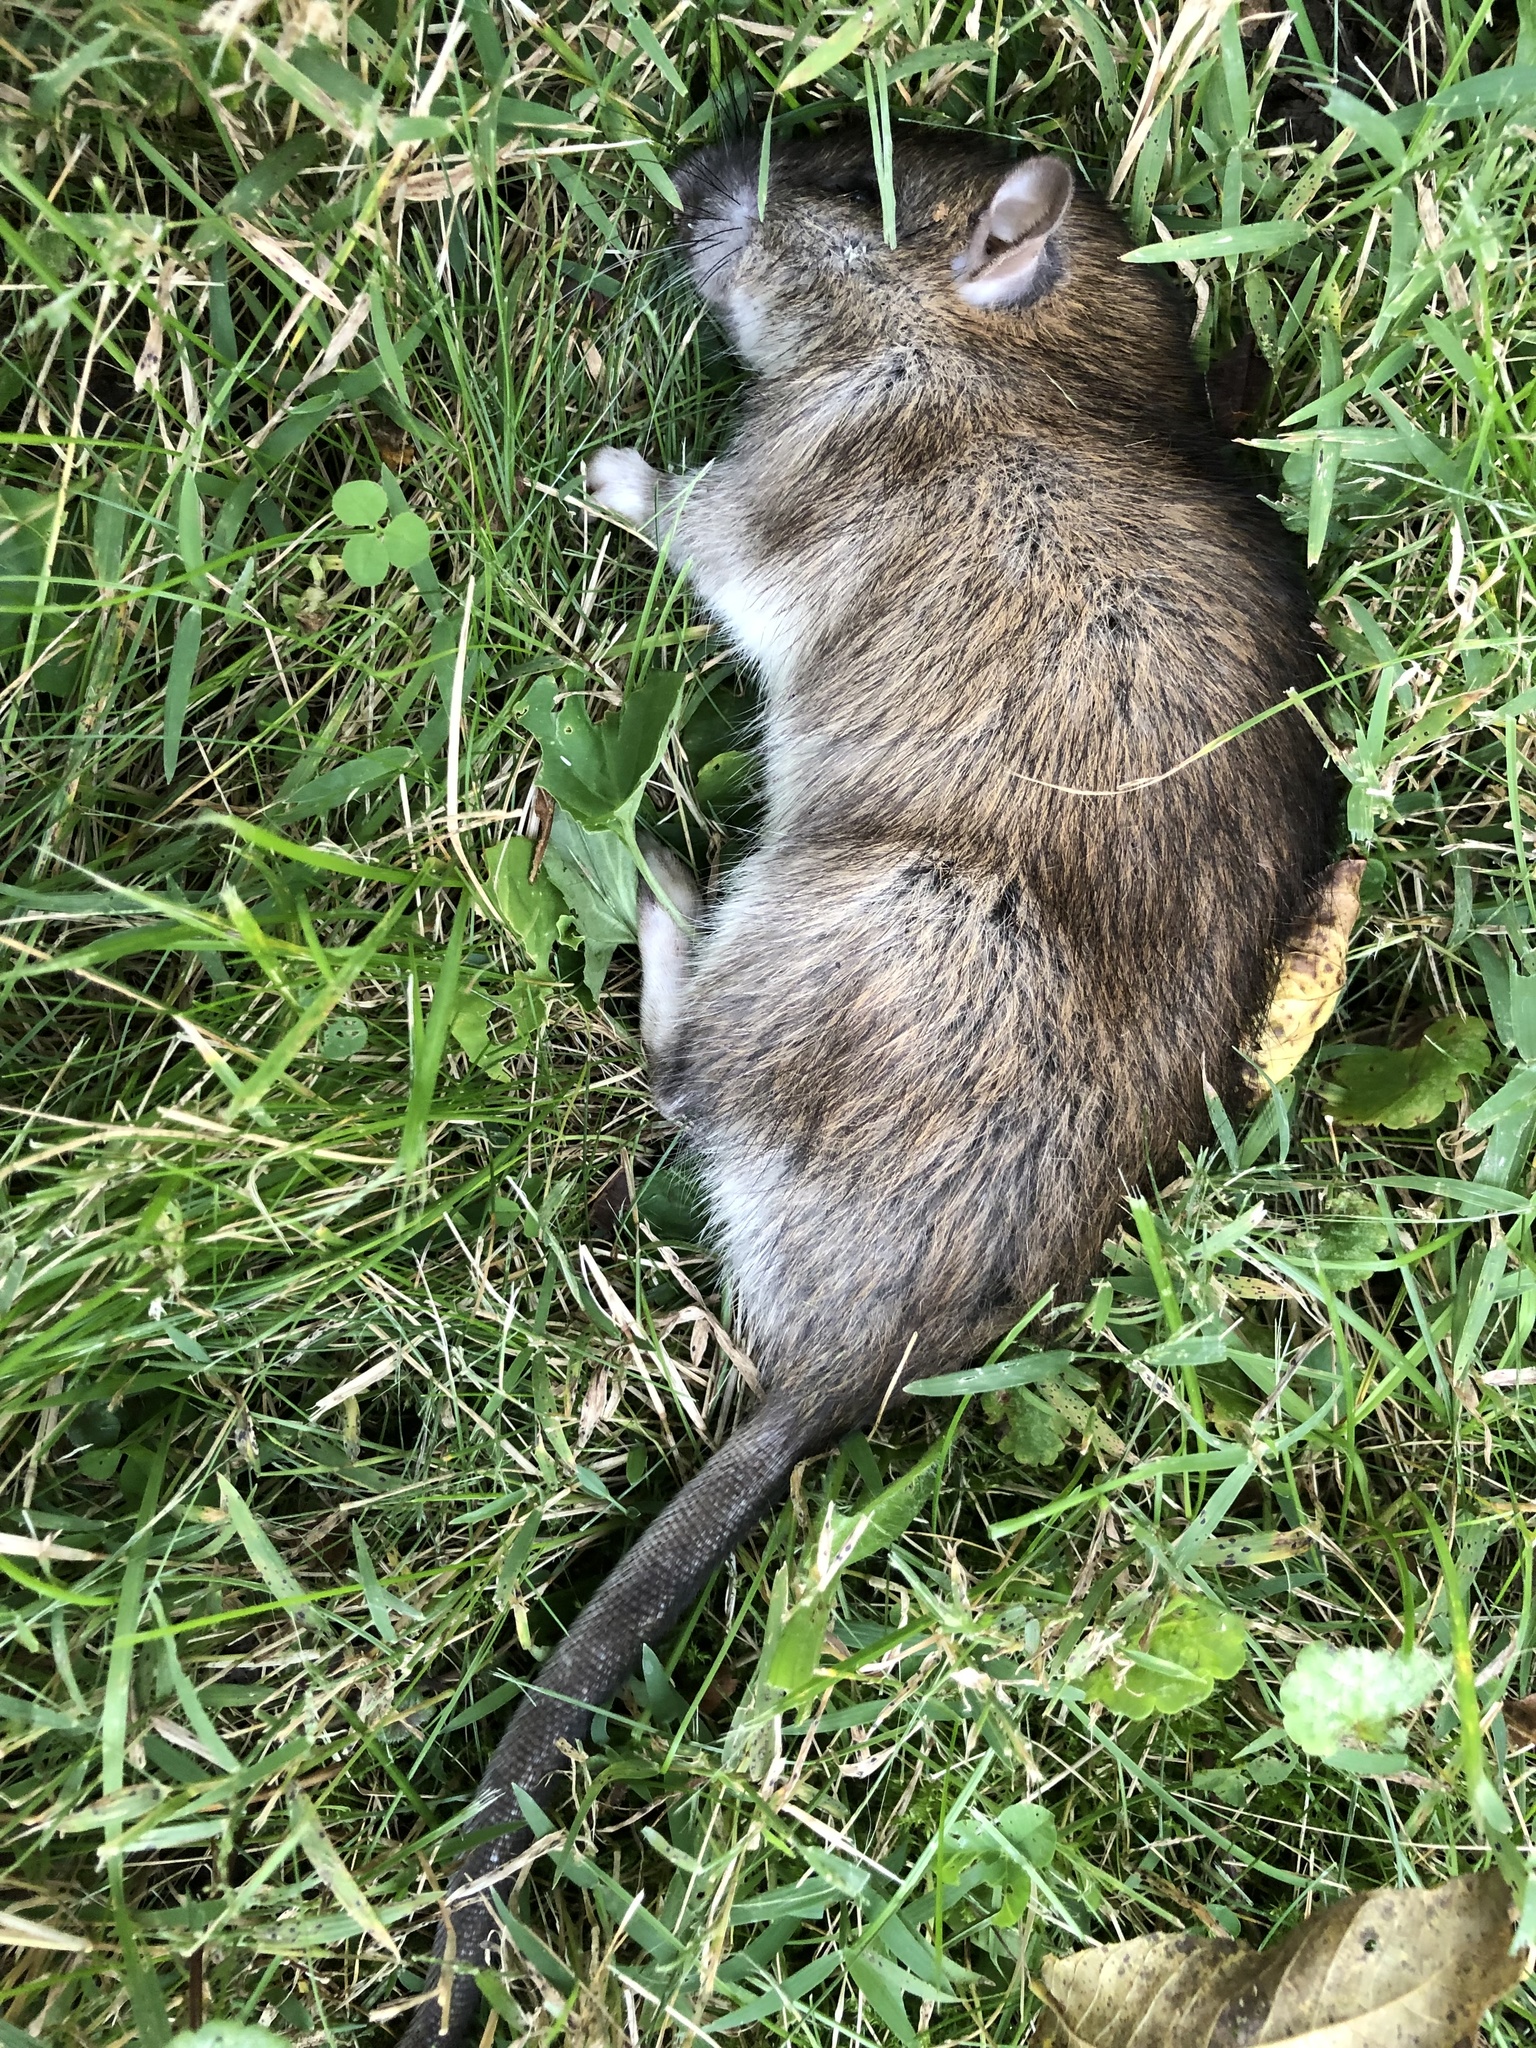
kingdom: Animalia
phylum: Chordata
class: Mammalia
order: Rodentia
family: Muridae
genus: Rattus
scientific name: Rattus norvegicus
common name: Brown rat
